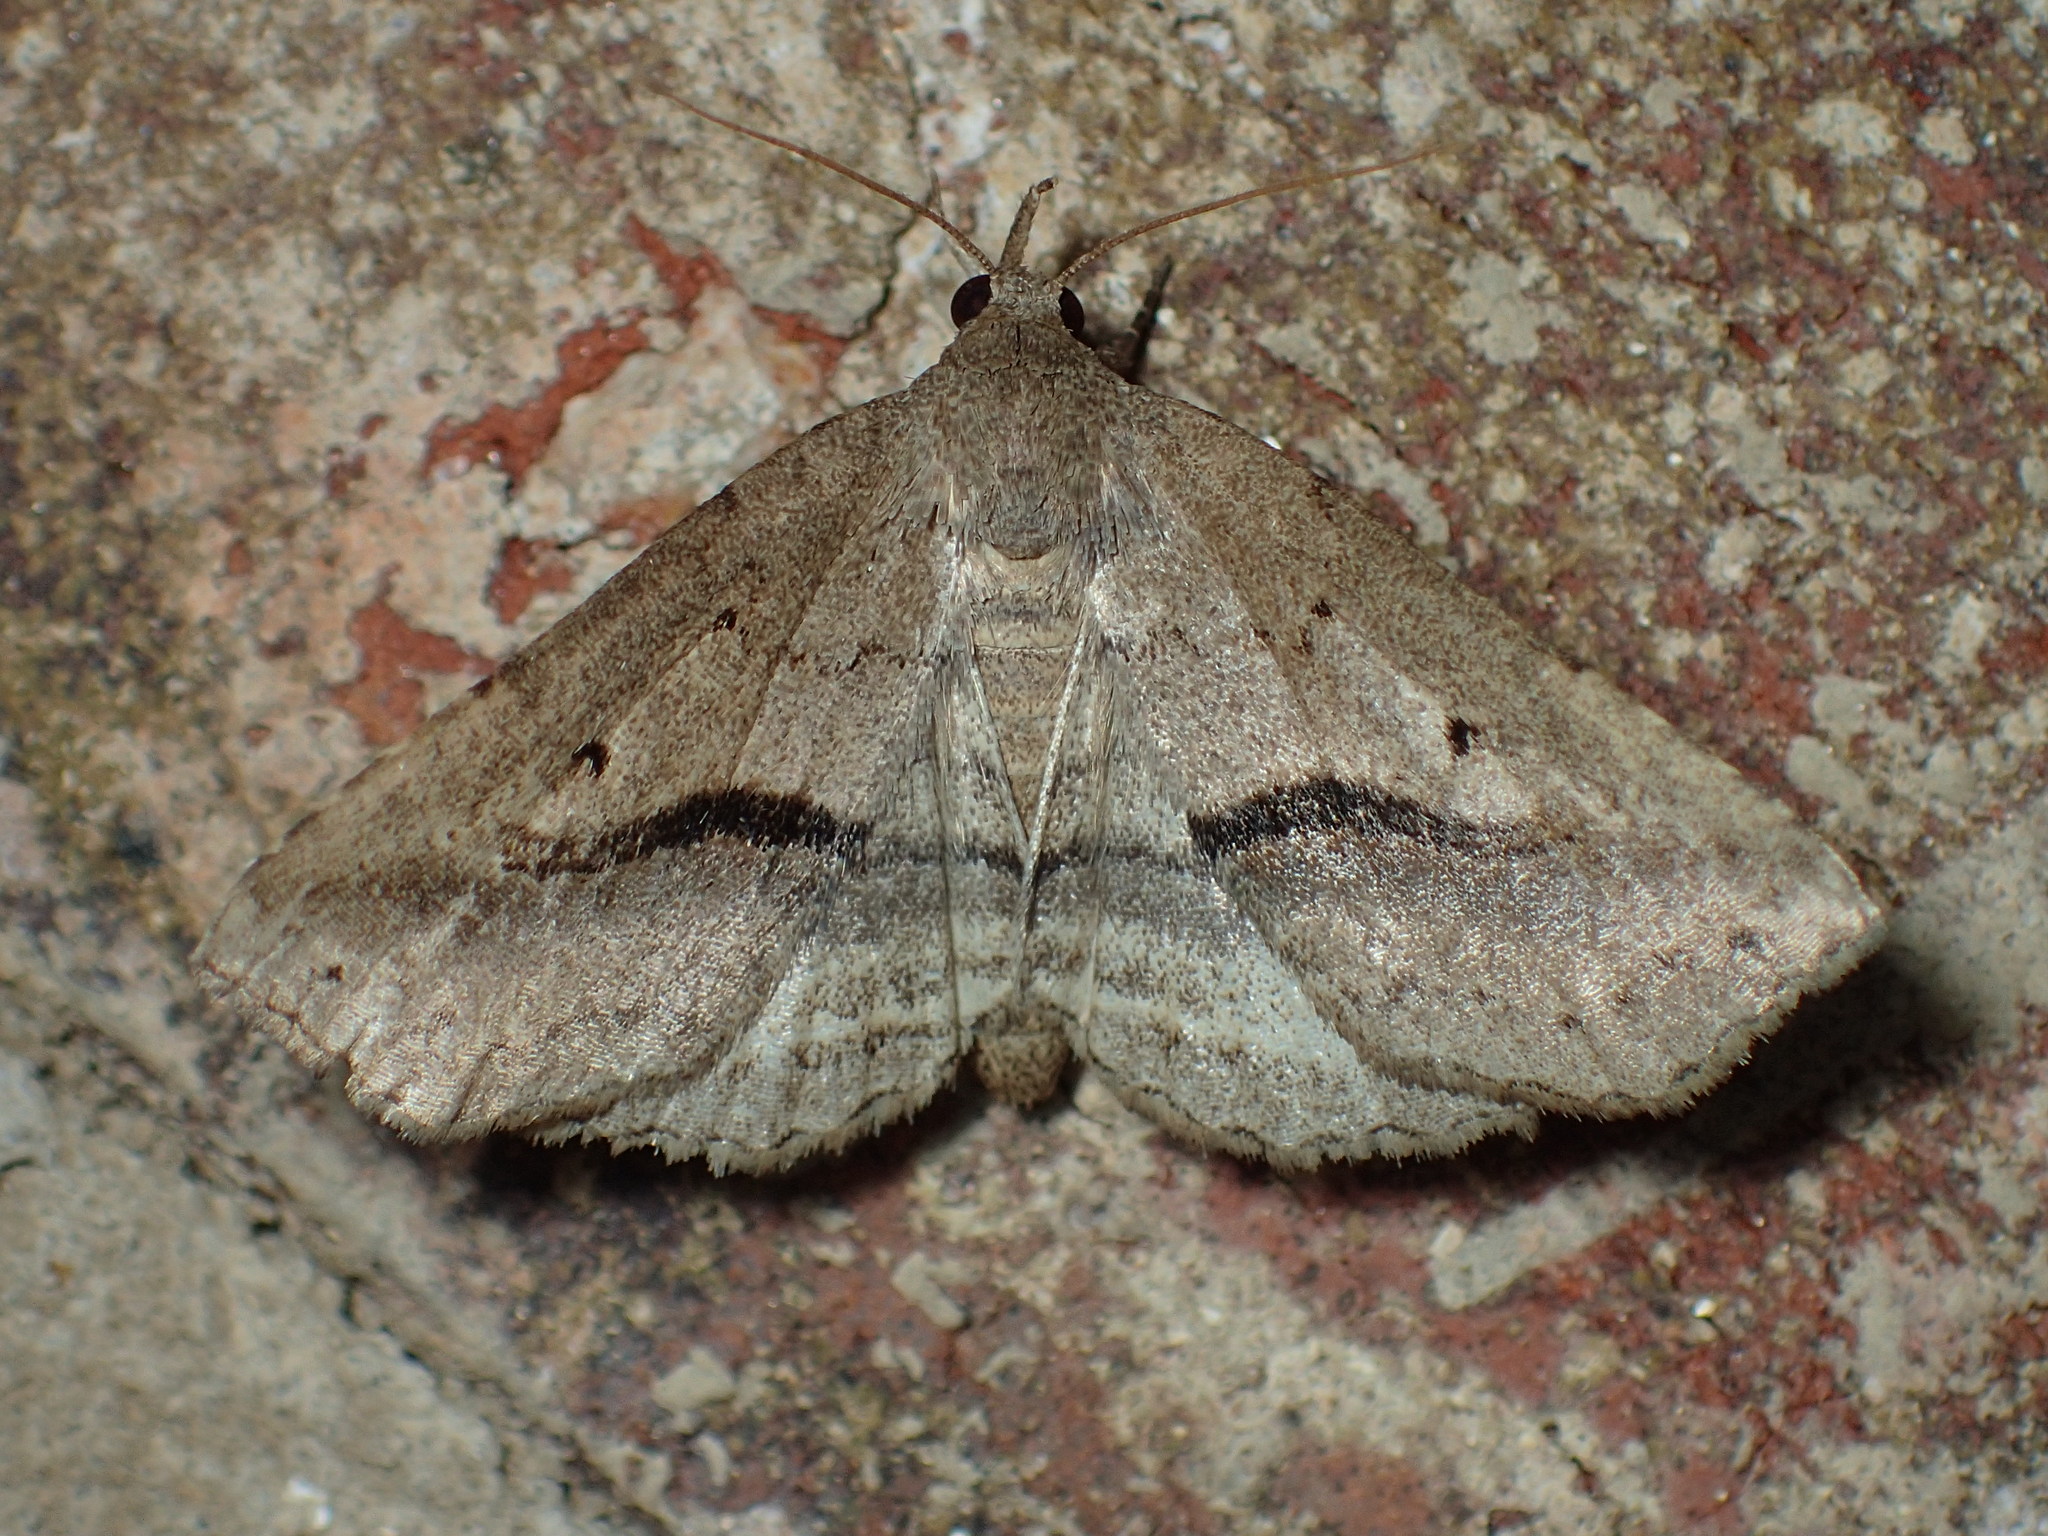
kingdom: Animalia
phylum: Arthropoda
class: Insecta
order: Lepidoptera
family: Erebidae
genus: Spargaloma
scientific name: Spargaloma perditalis
